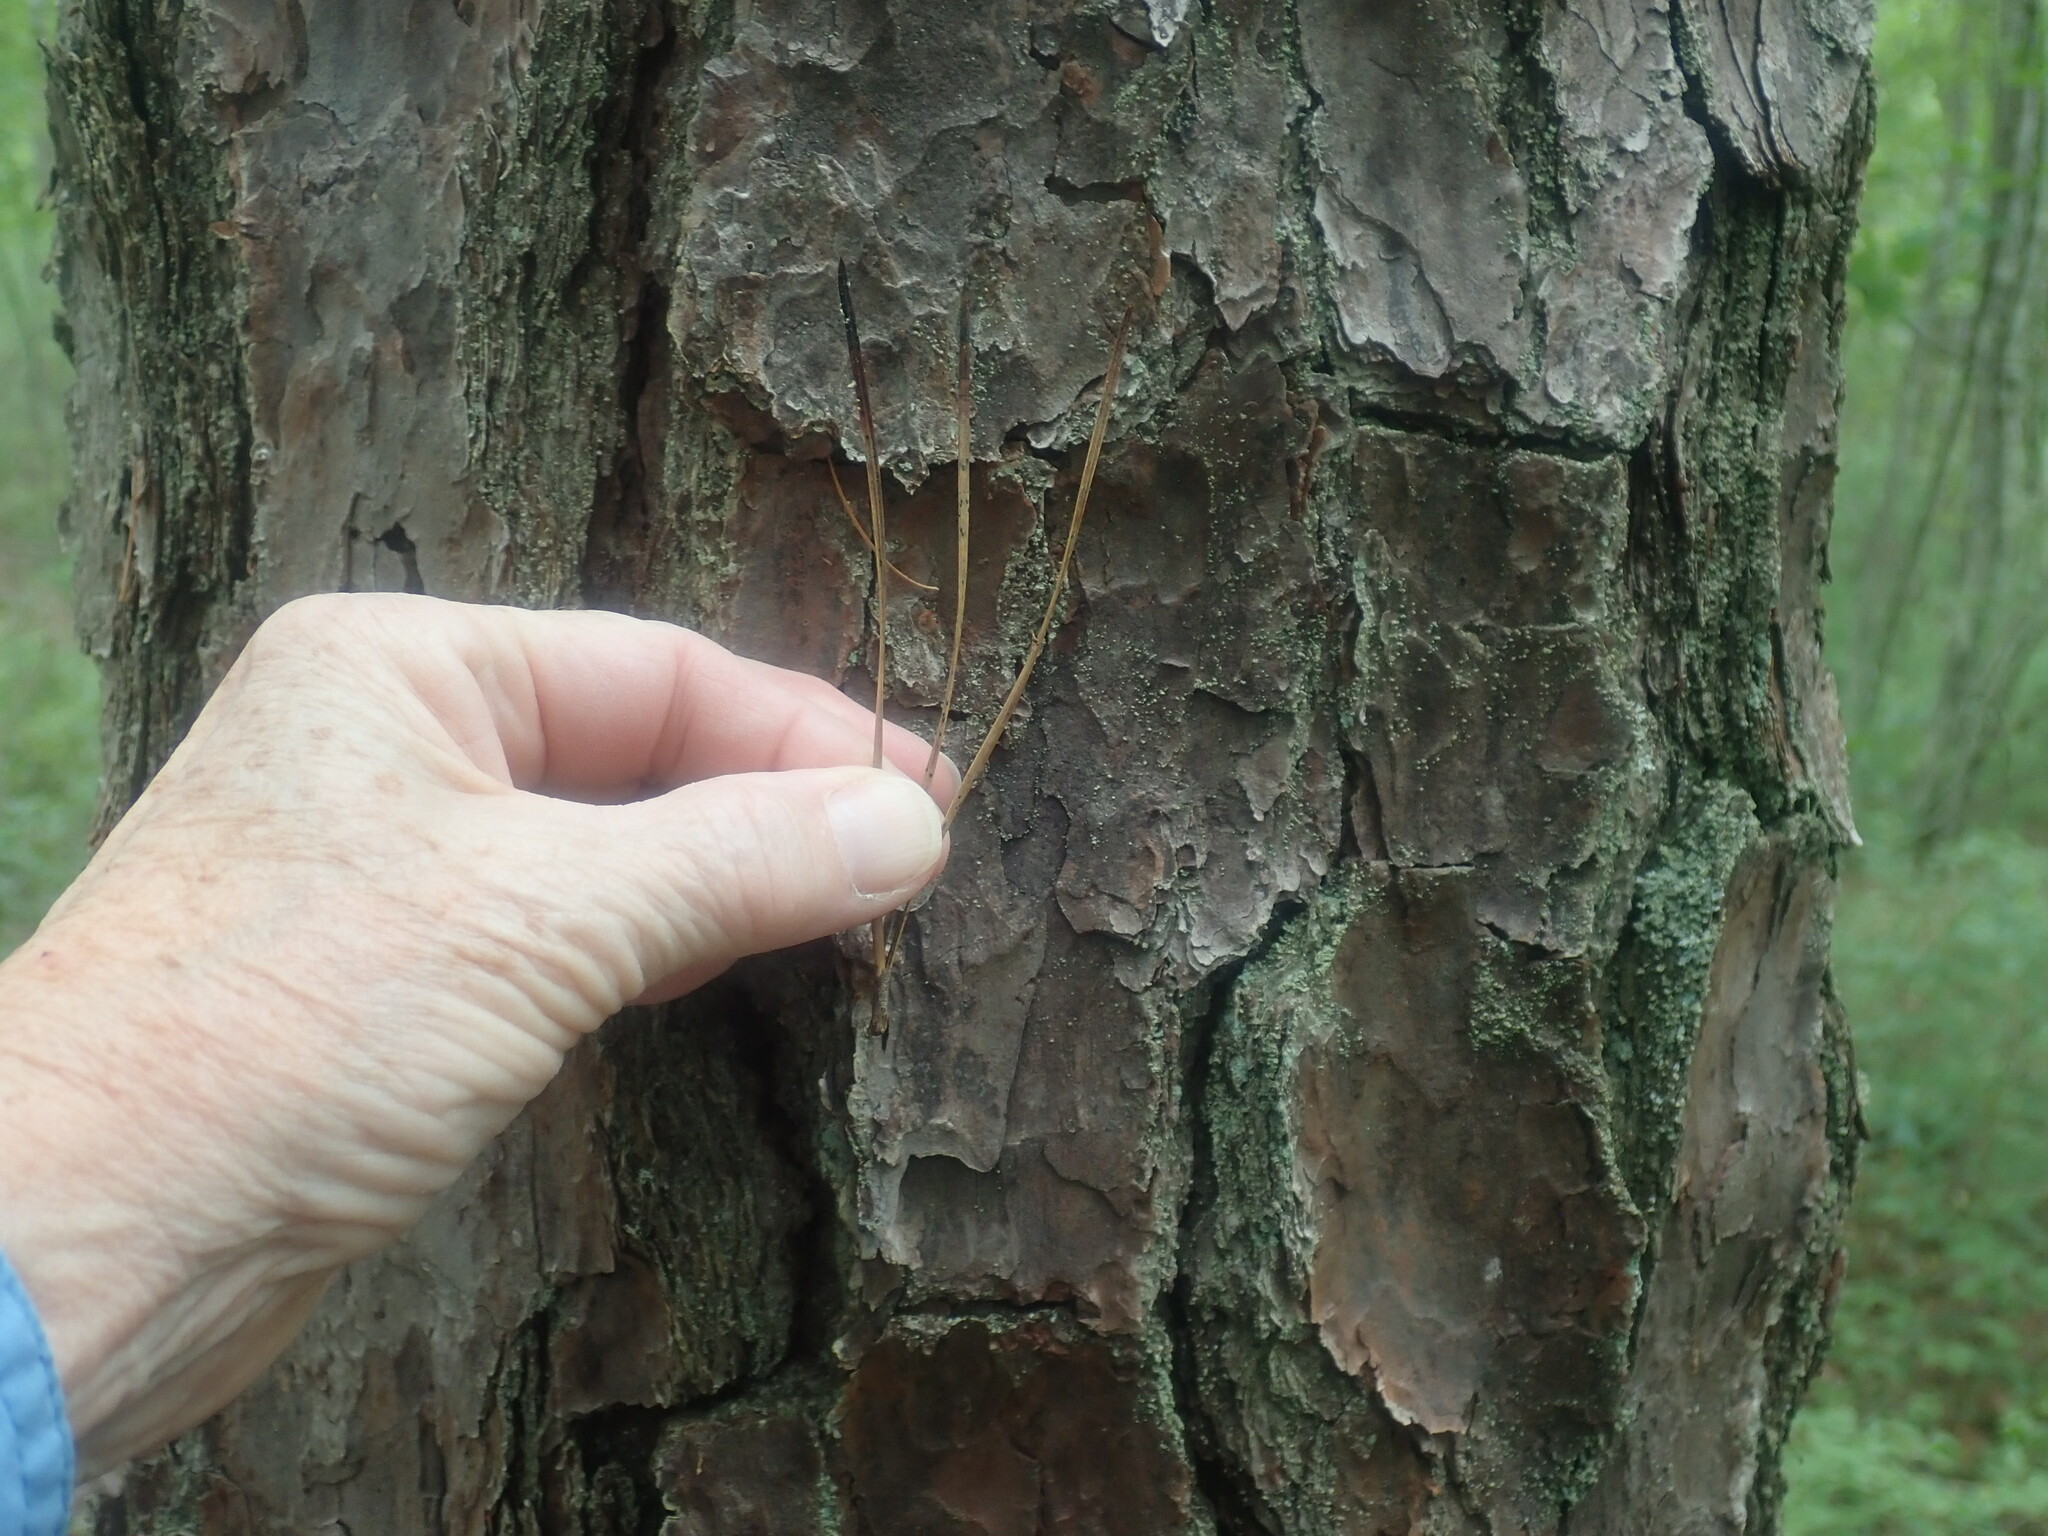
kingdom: Plantae
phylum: Tracheophyta
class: Pinopsida
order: Pinales
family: Pinaceae
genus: Pinus
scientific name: Pinus rigida
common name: Pitch pine
